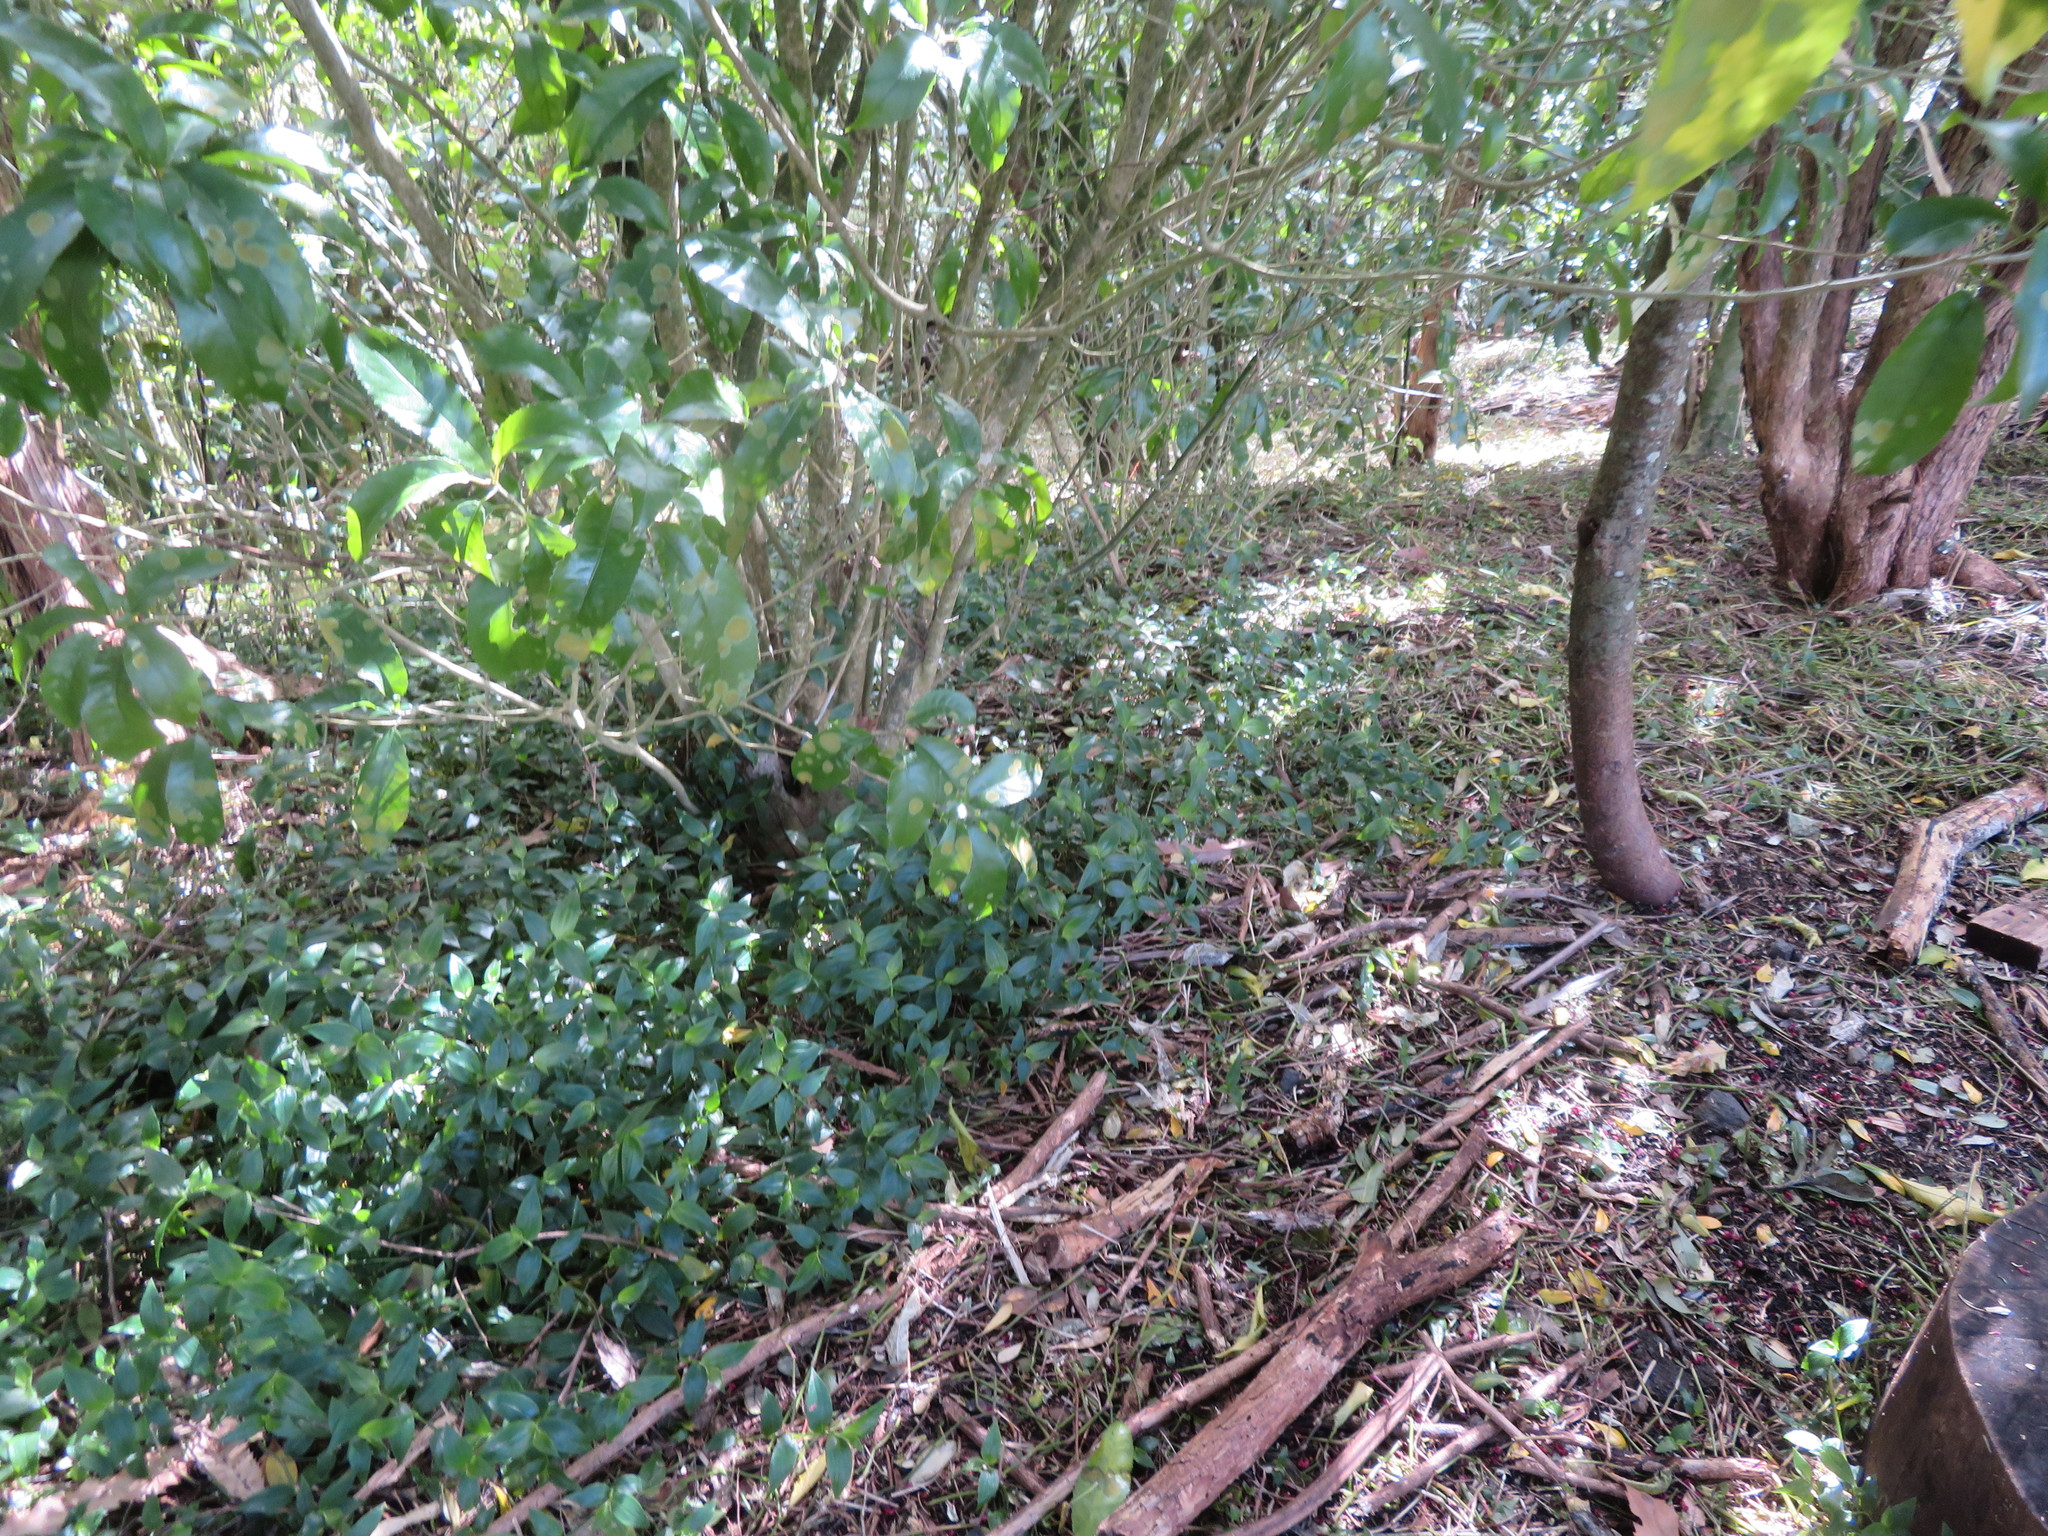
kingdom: Plantae
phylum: Tracheophyta
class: Liliopsida
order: Commelinales
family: Commelinaceae
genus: Tradescantia
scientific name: Tradescantia fluminensis
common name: Wandering-jew
